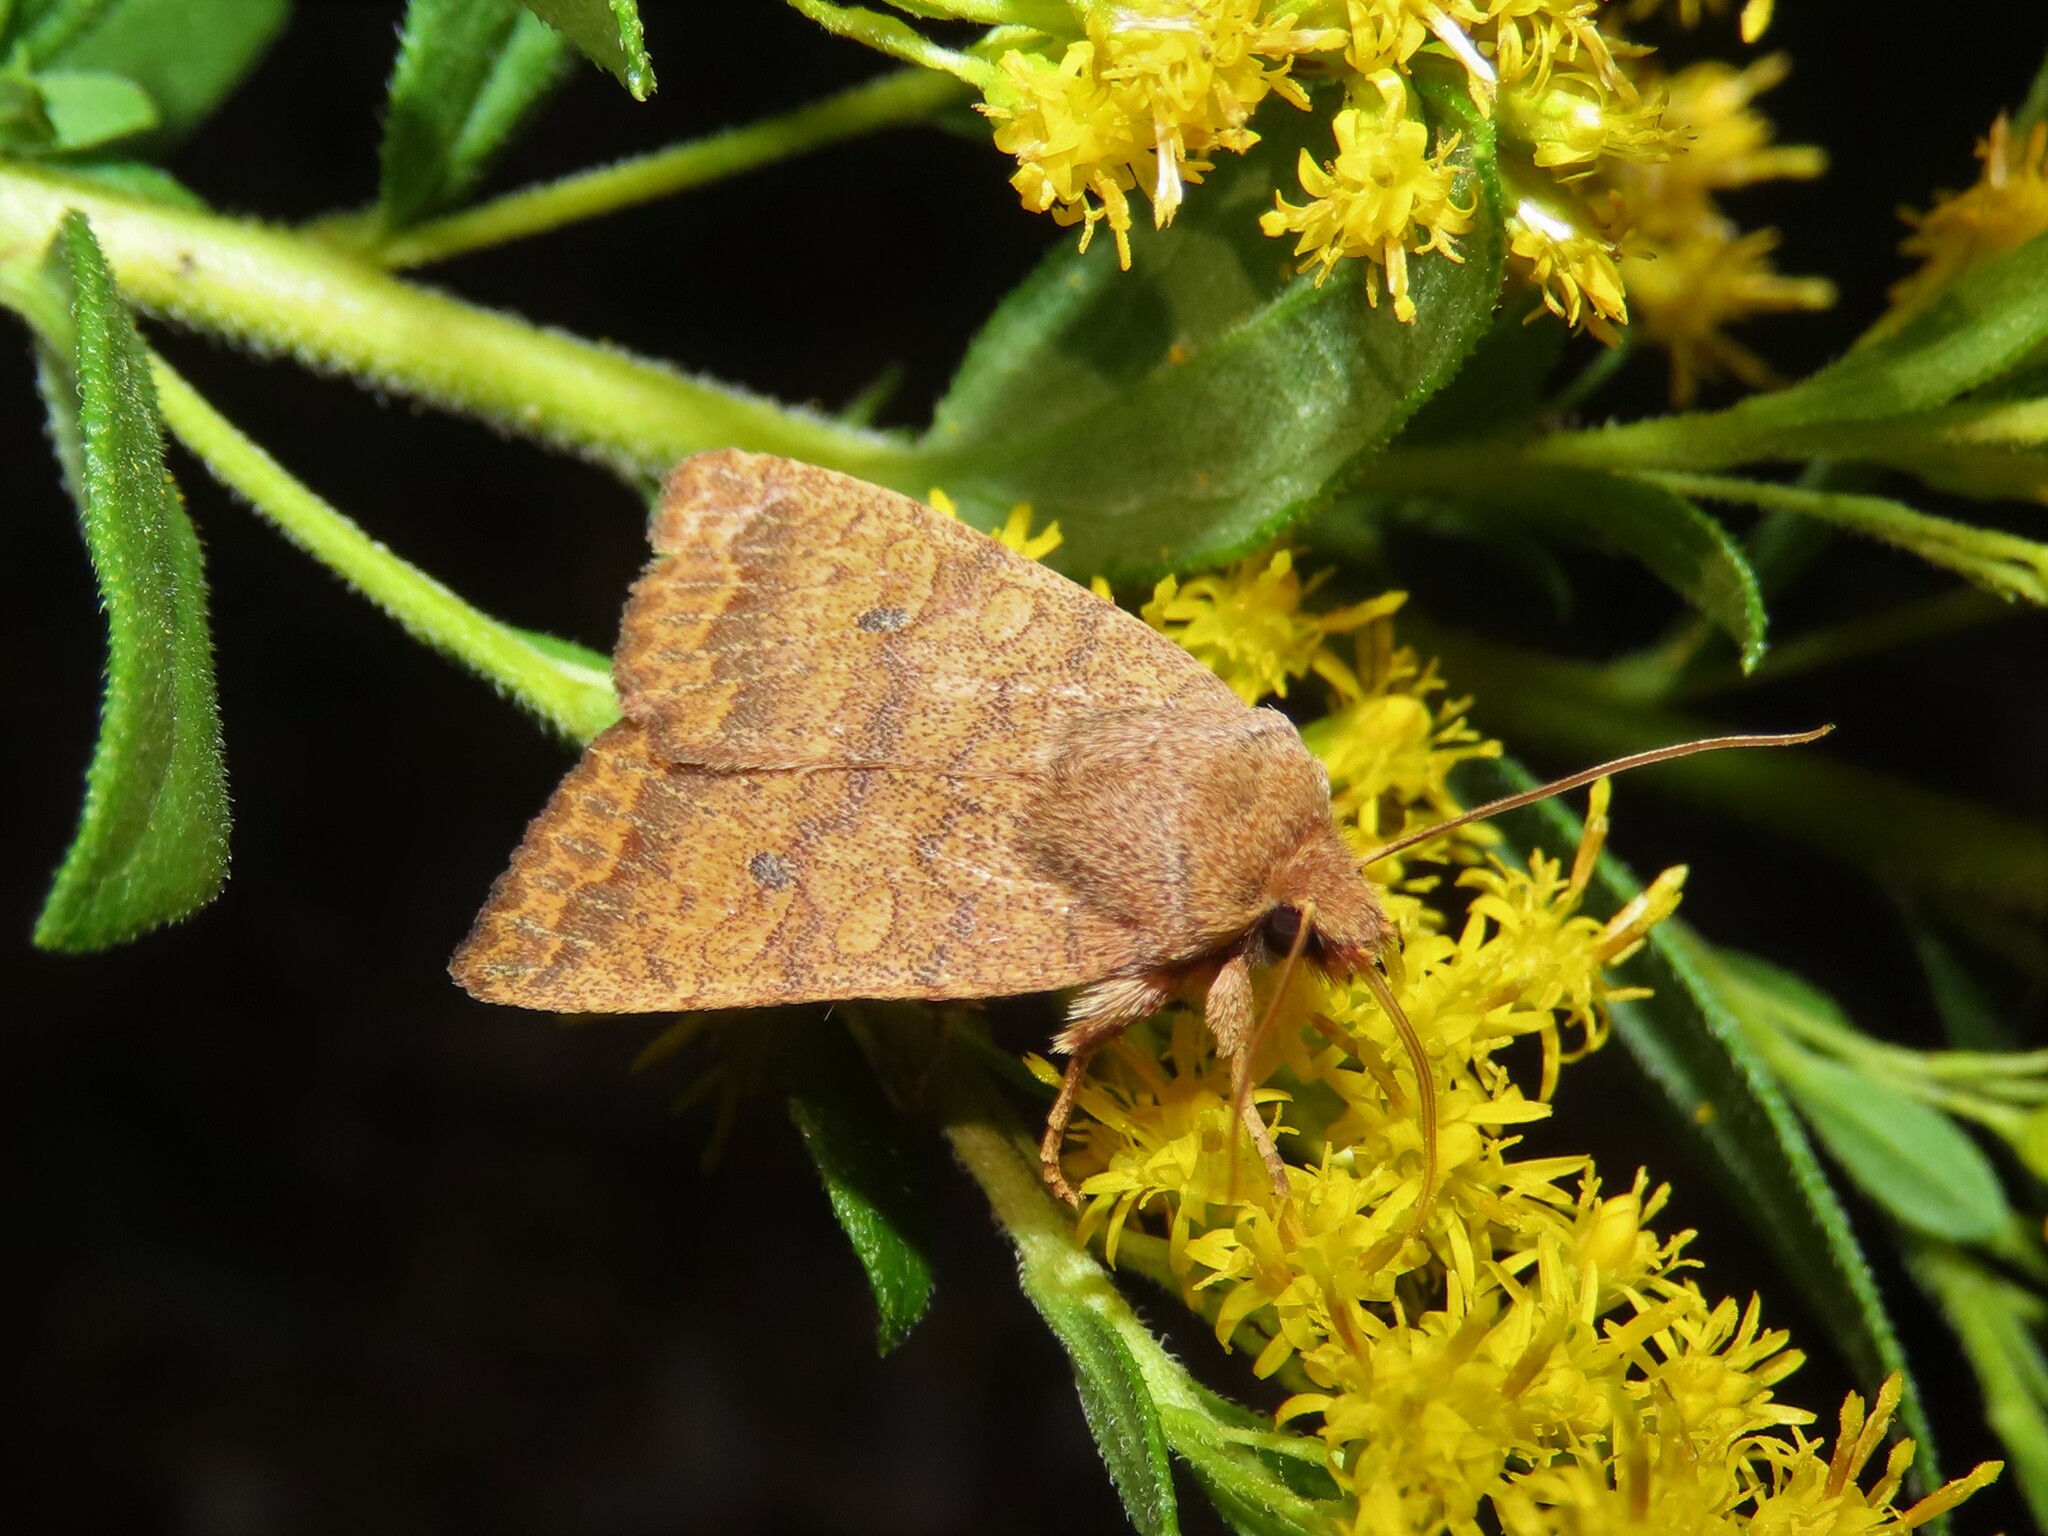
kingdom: Animalia
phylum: Arthropoda
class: Insecta
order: Lepidoptera
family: Noctuidae
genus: Agrochola
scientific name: Agrochola bicolorago
